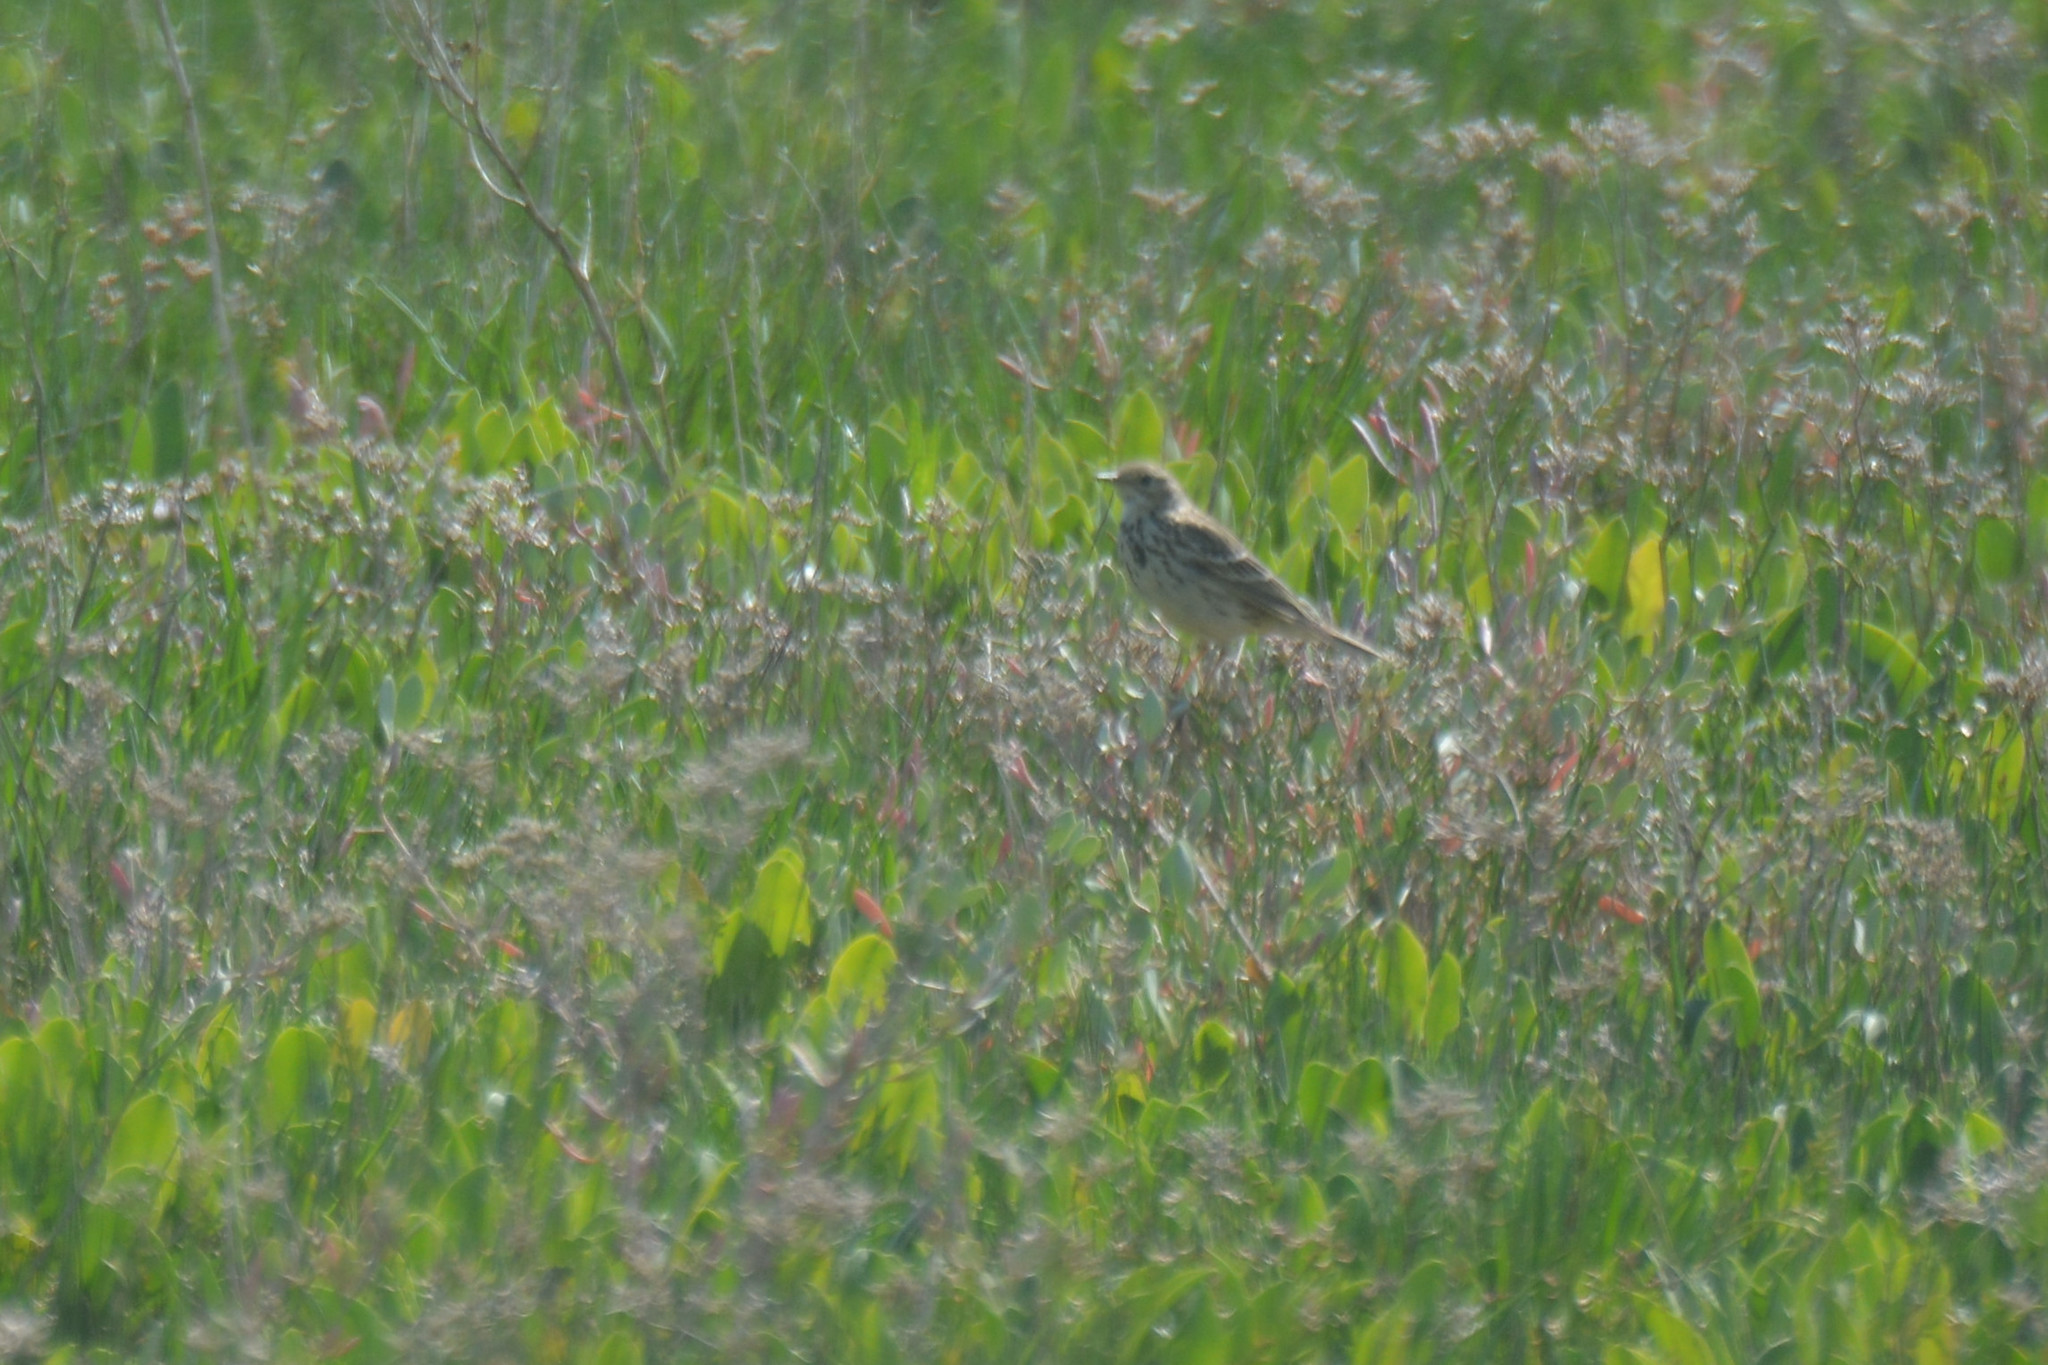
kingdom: Animalia
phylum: Chordata
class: Aves
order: Passeriformes
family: Motacillidae
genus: Anthus
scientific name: Anthus pratensis
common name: Meadow pipit
